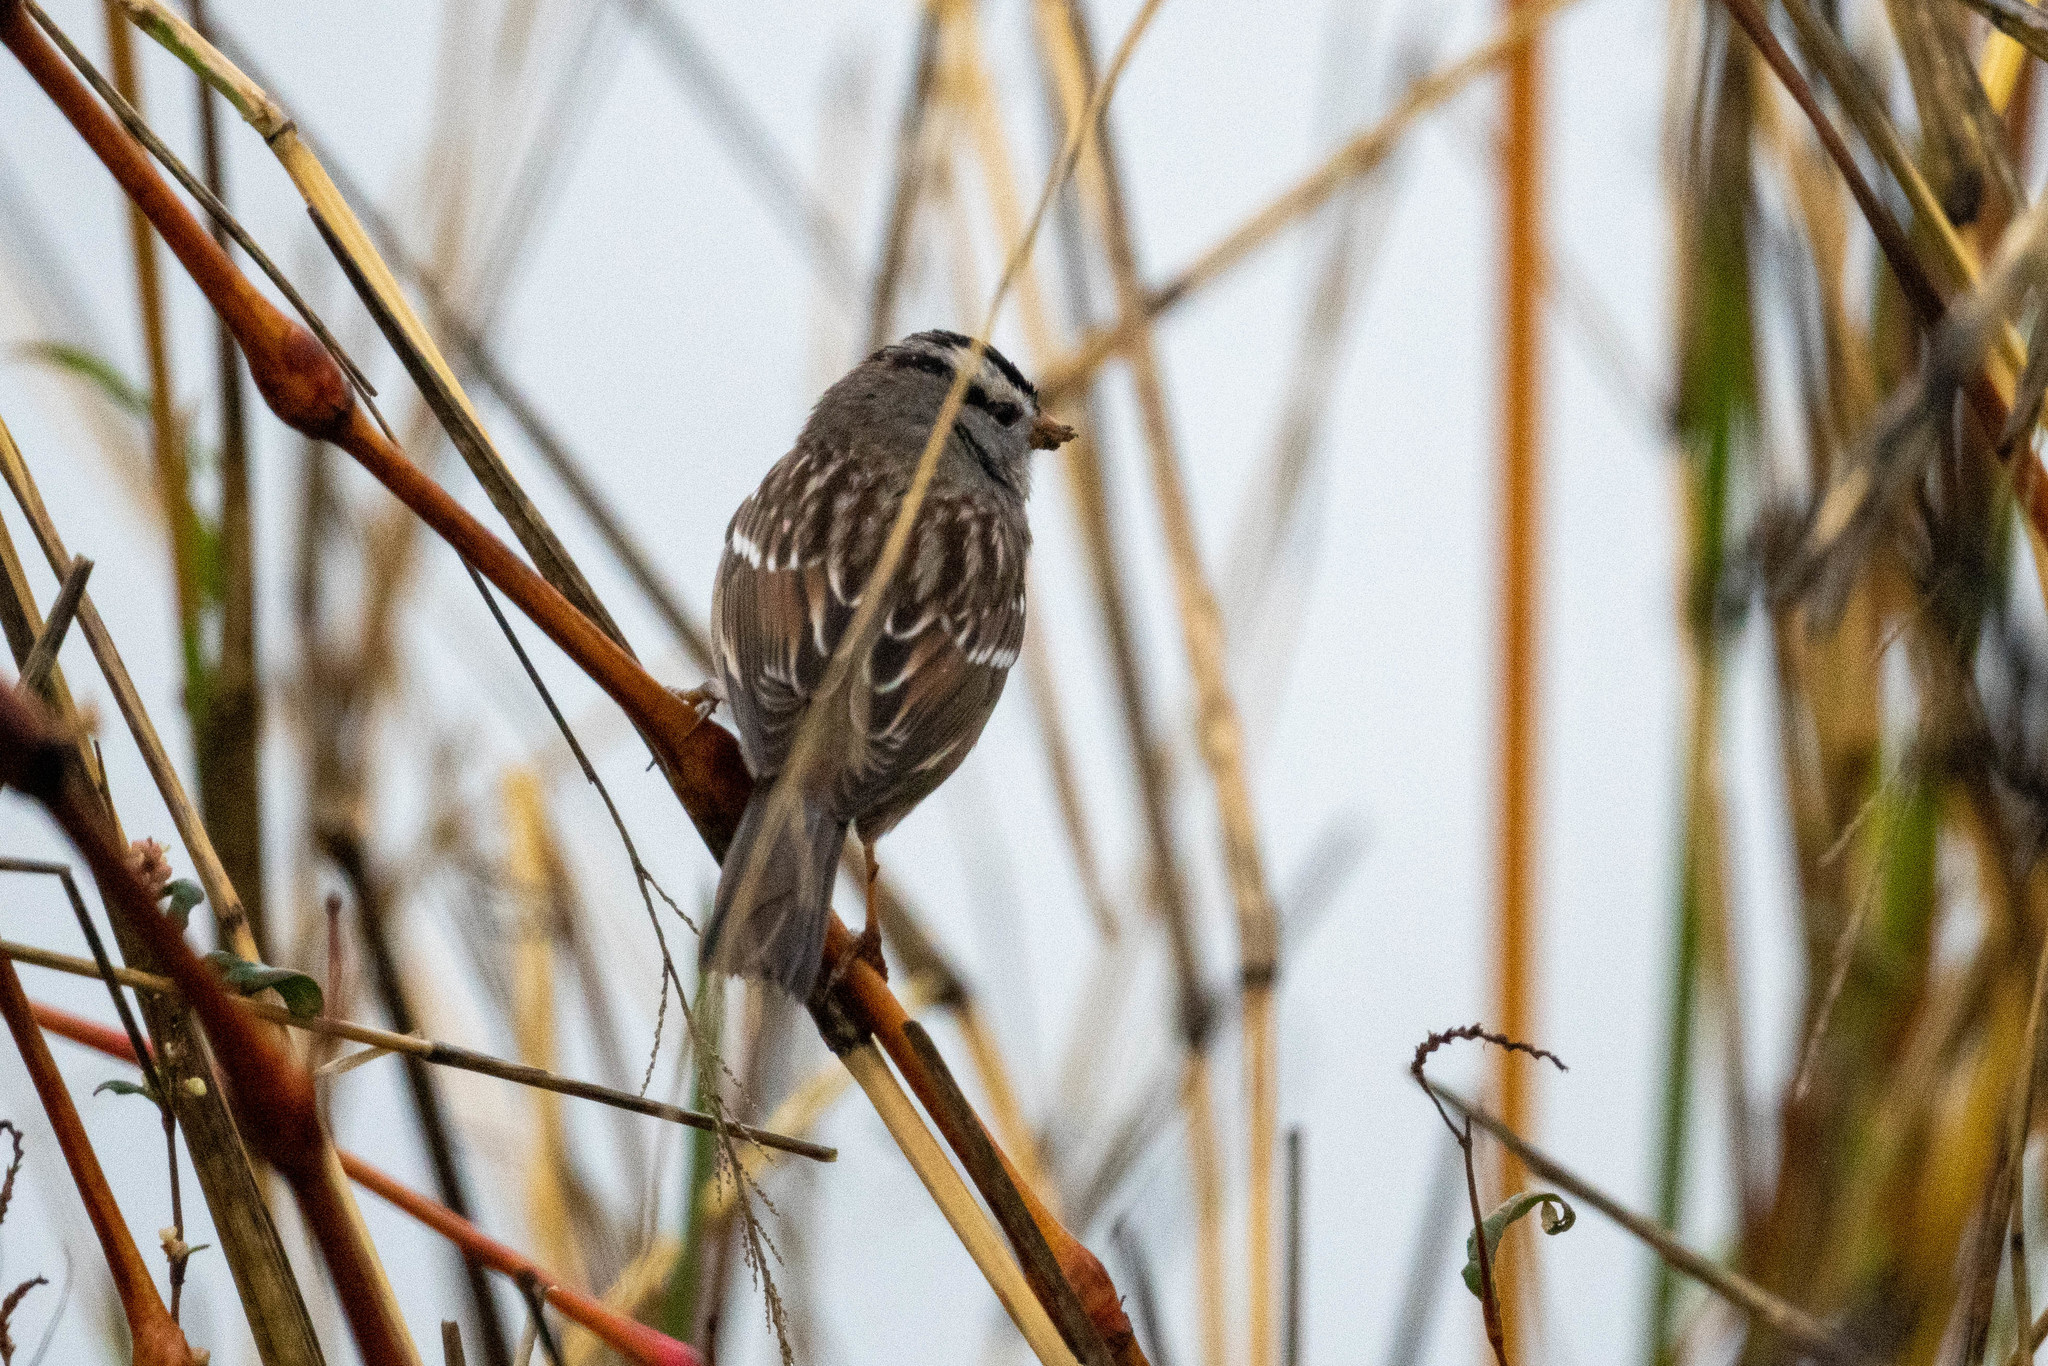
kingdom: Animalia
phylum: Chordata
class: Aves
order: Passeriformes
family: Passerellidae
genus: Zonotrichia
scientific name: Zonotrichia leucophrys
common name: White-crowned sparrow
